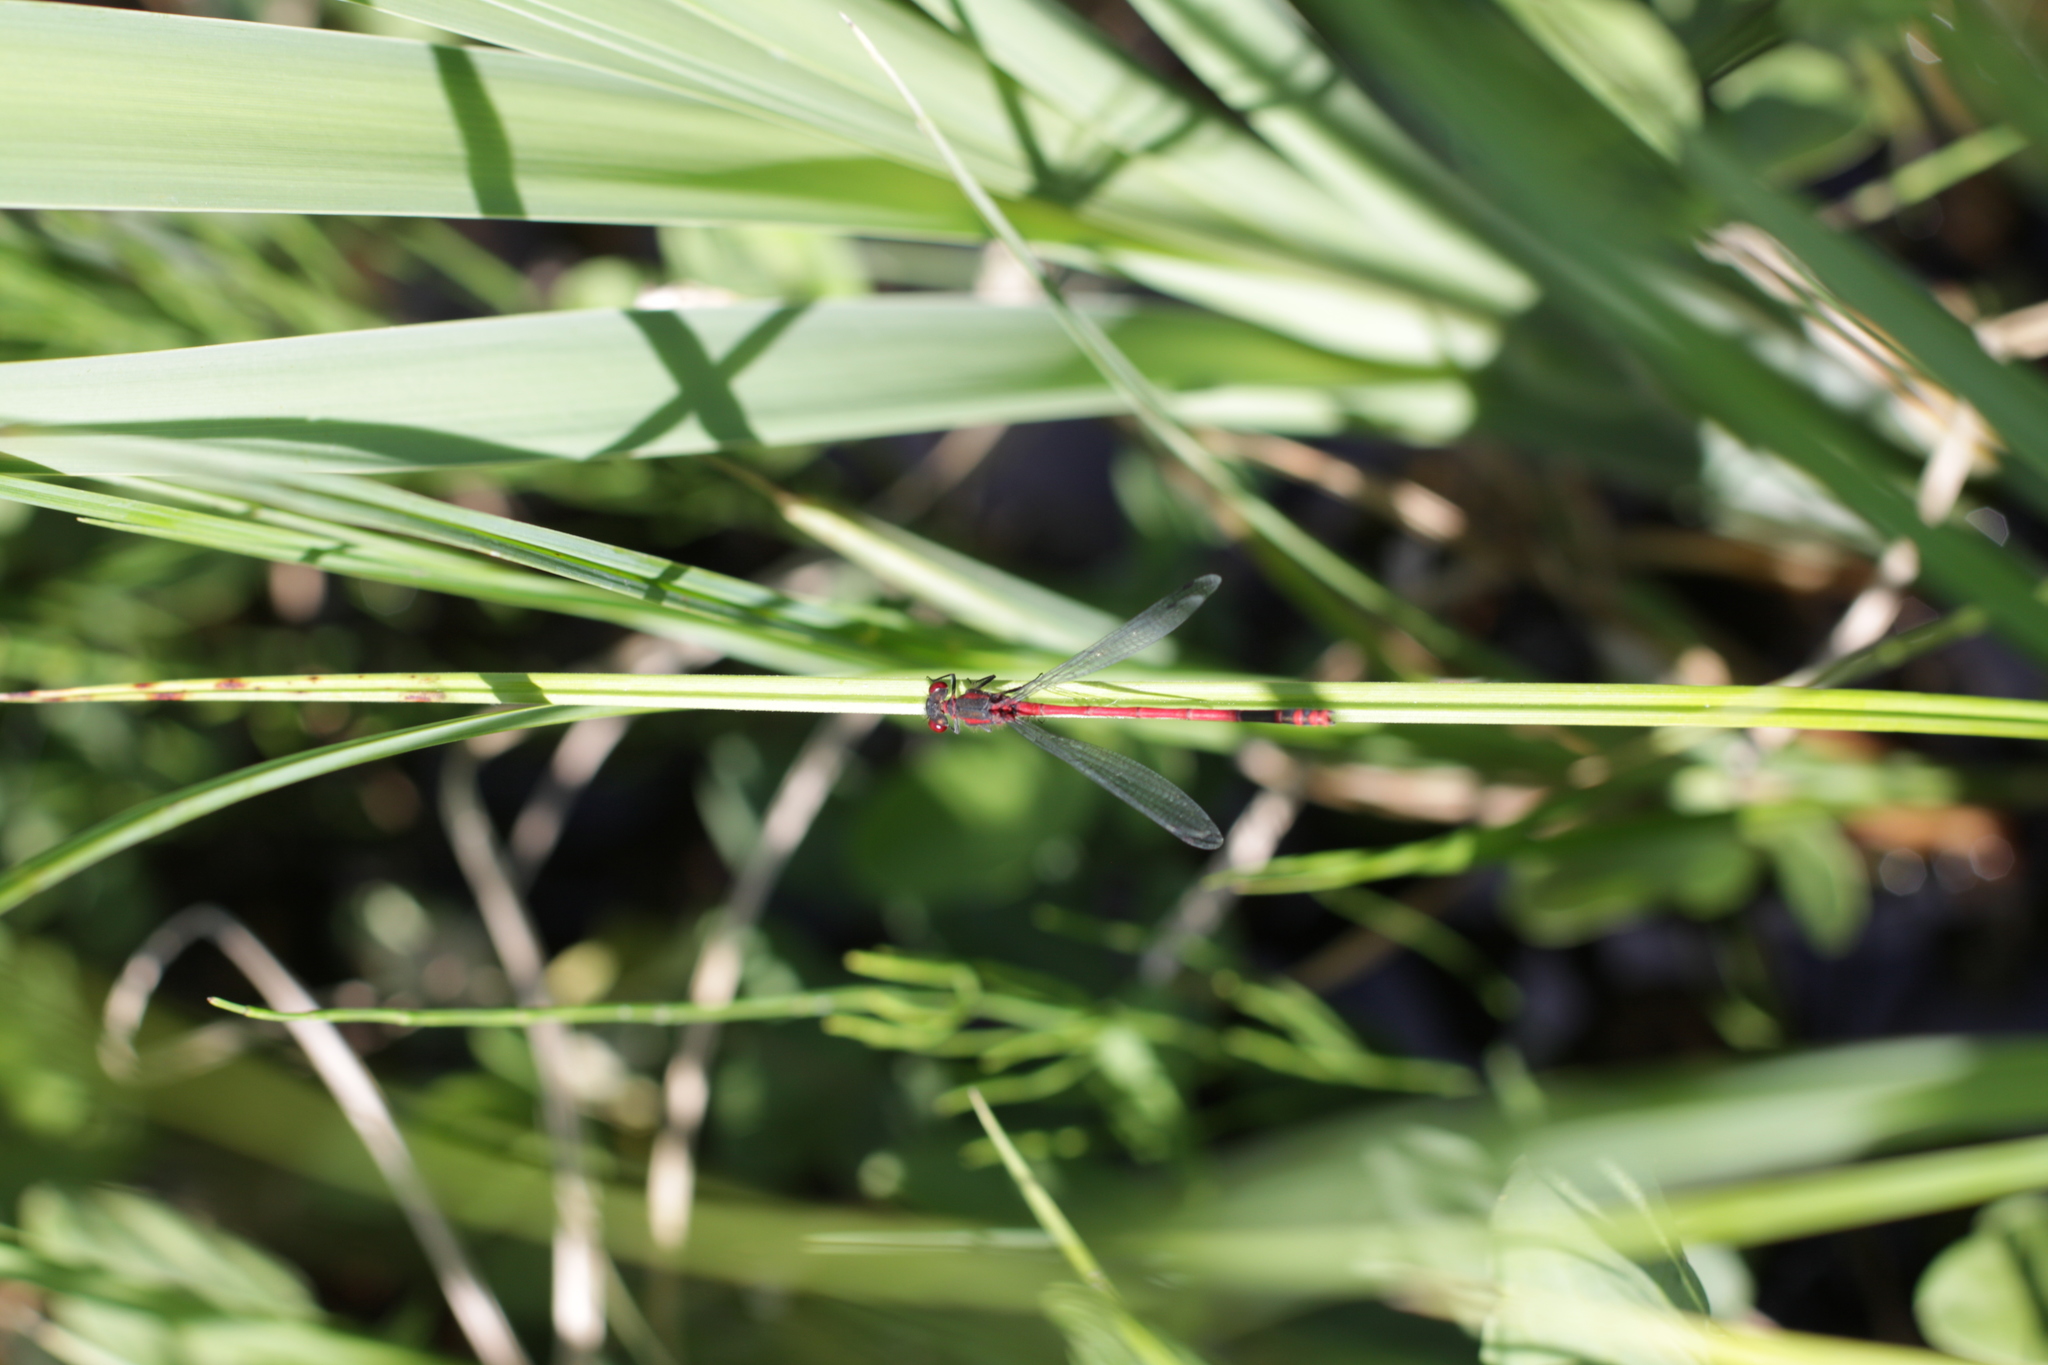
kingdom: Animalia
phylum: Arthropoda
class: Insecta
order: Odonata
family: Coenagrionidae
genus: Pyrrhosoma
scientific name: Pyrrhosoma nymphula
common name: Large red damsel
